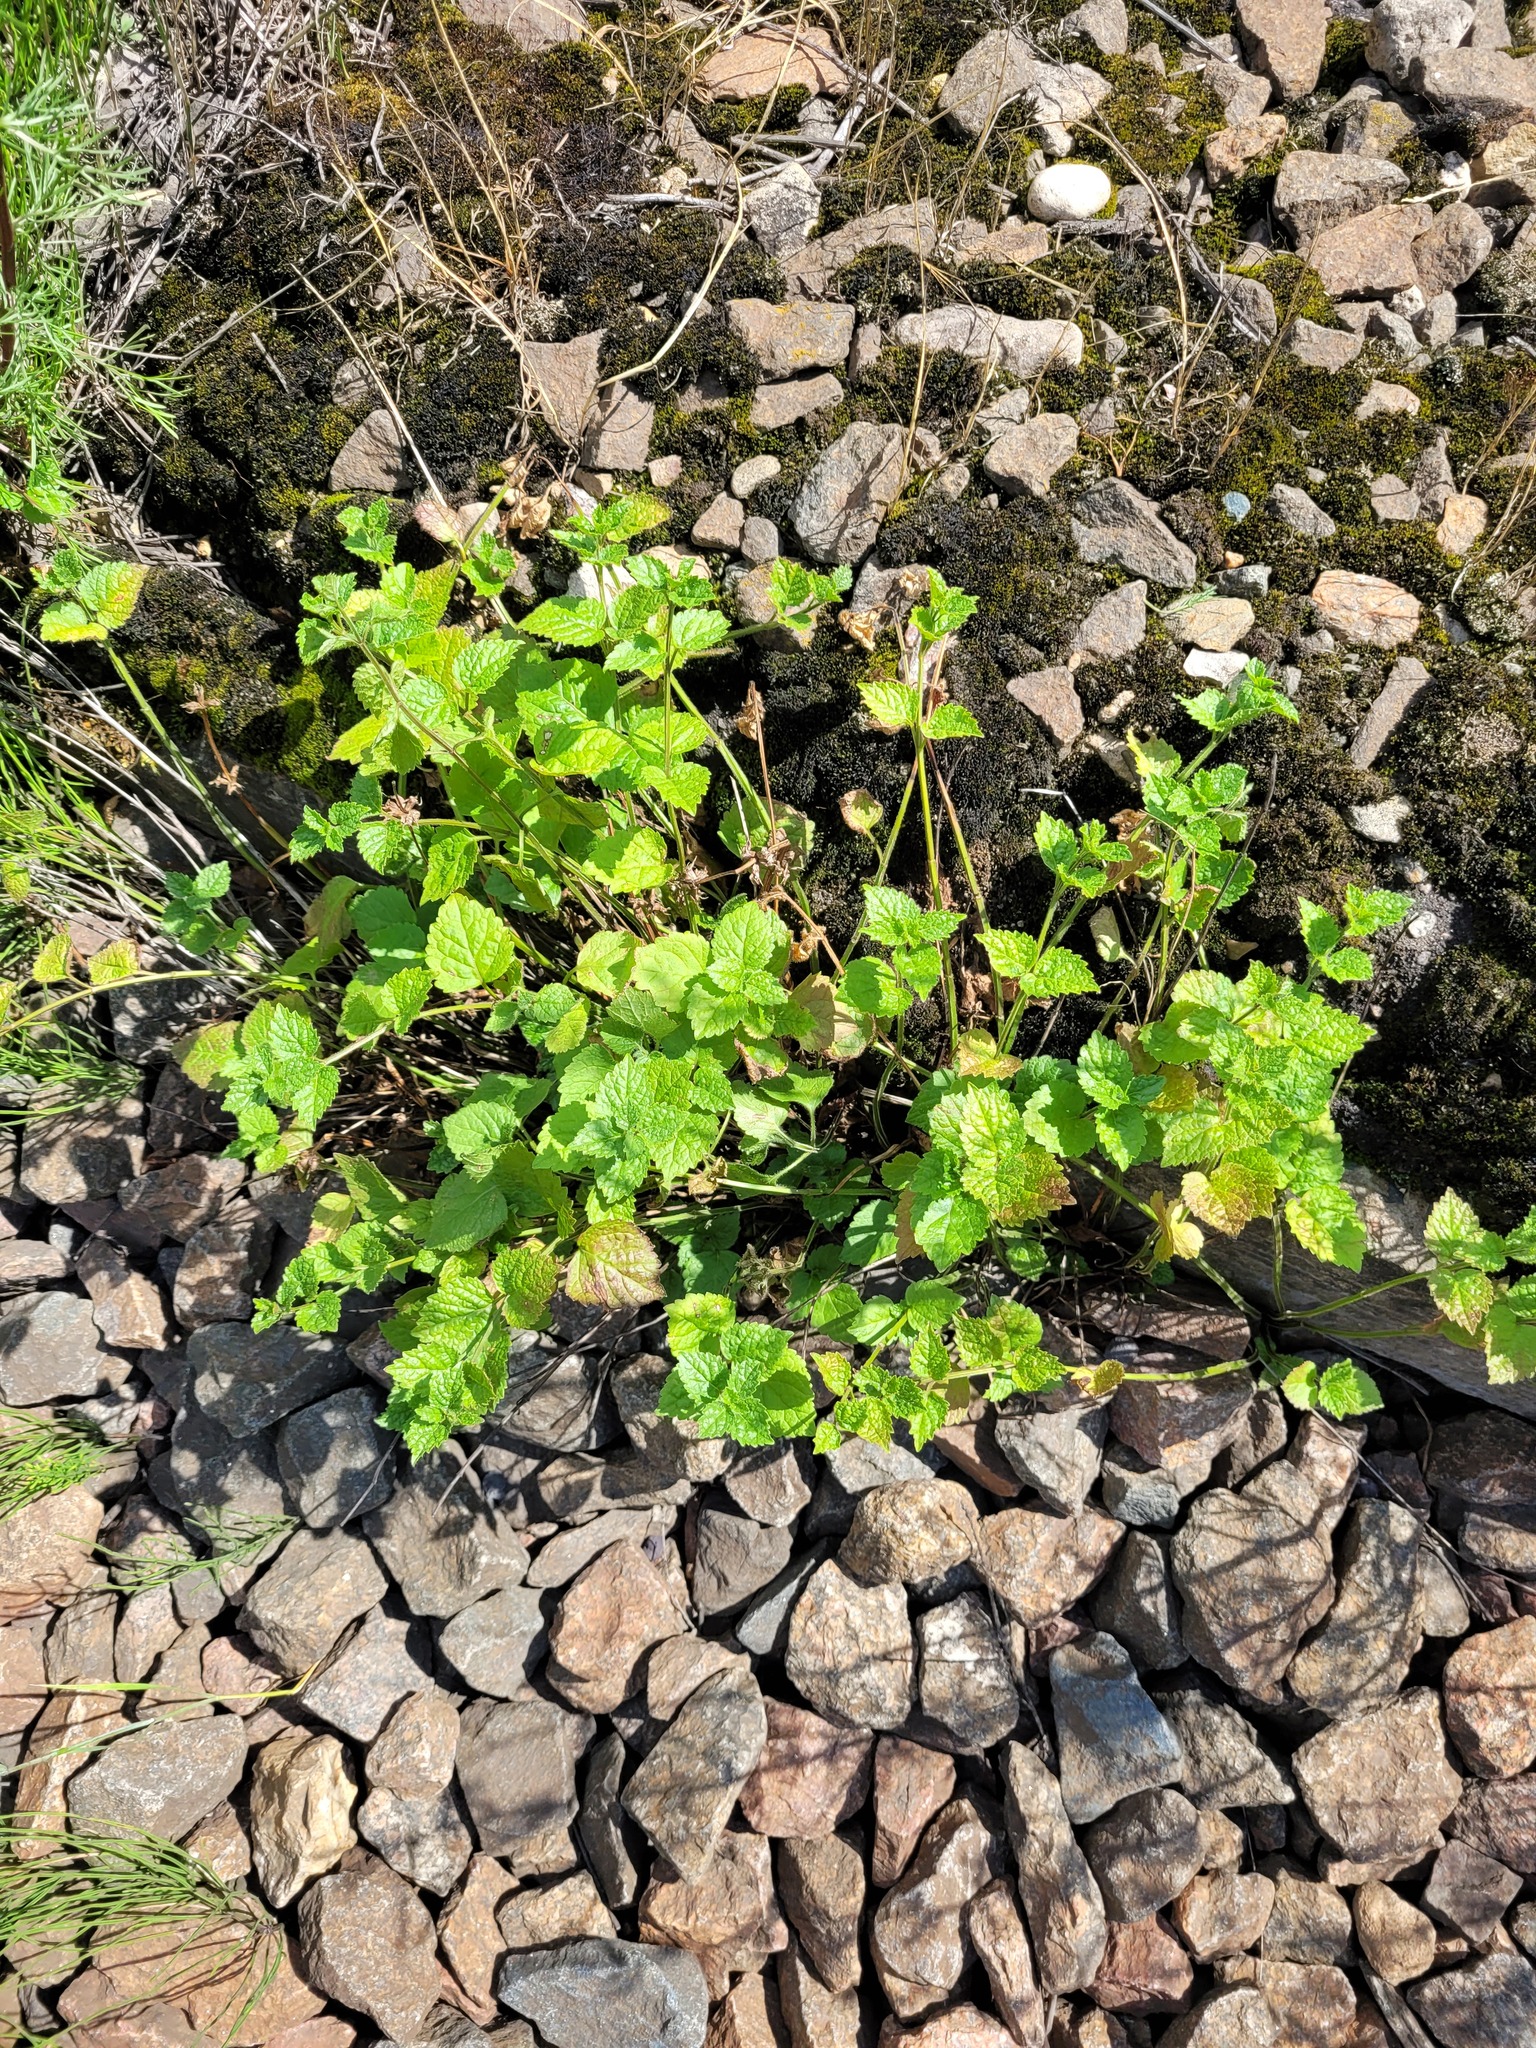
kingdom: Plantae
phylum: Tracheophyta
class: Magnoliopsida
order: Lamiales
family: Lamiaceae
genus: Lamium
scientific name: Lamium galeobdolon
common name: Yellow archangel
